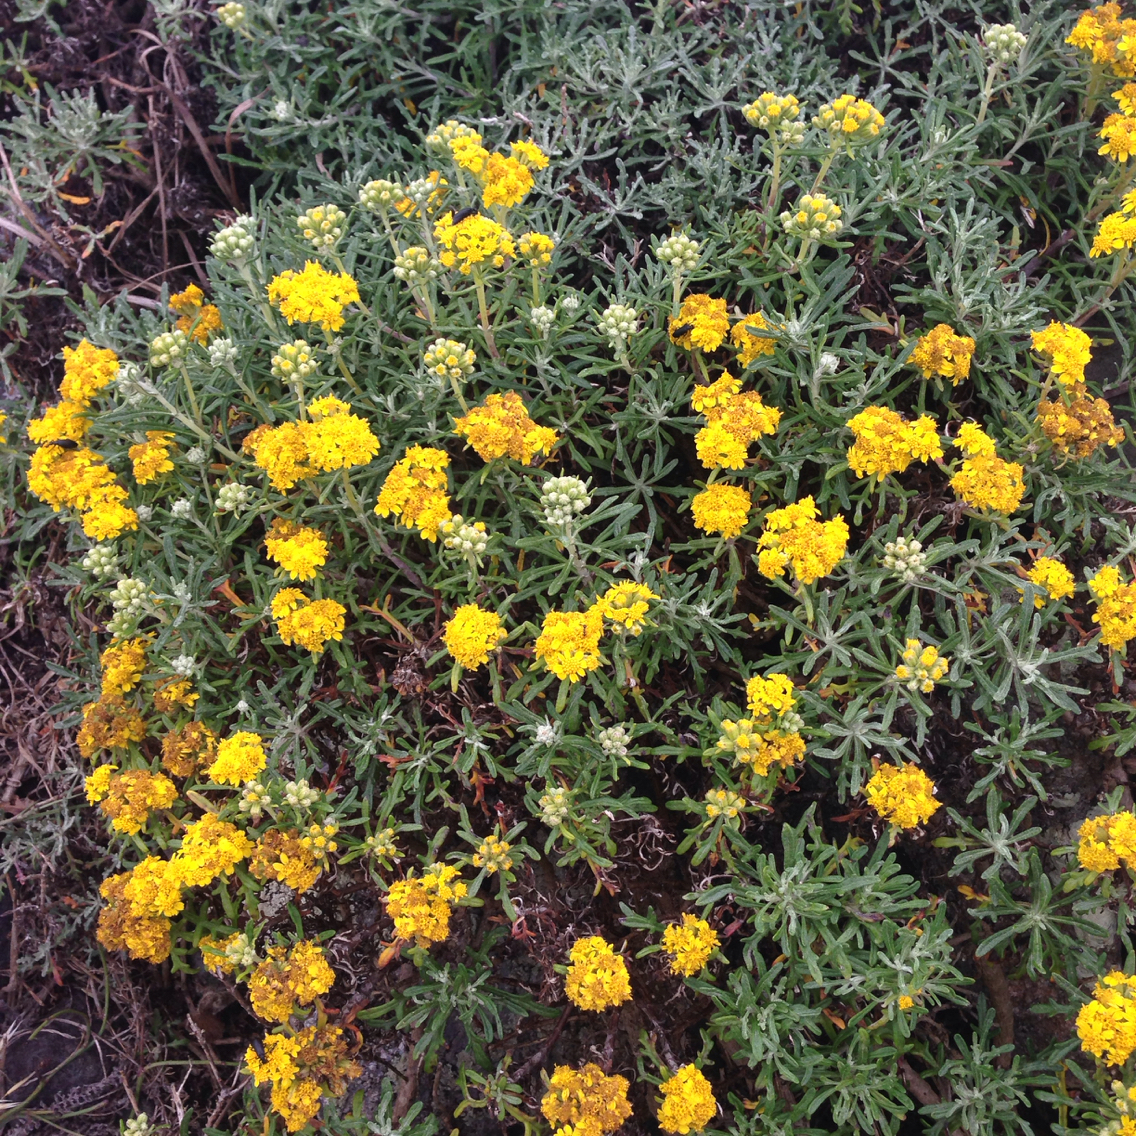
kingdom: Plantae
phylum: Tracheophyta
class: Magnoliopsida
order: Asterales
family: Asteraceae
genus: Eriophyllum
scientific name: Eriophyllum staechadifolium
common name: Lizardtail
